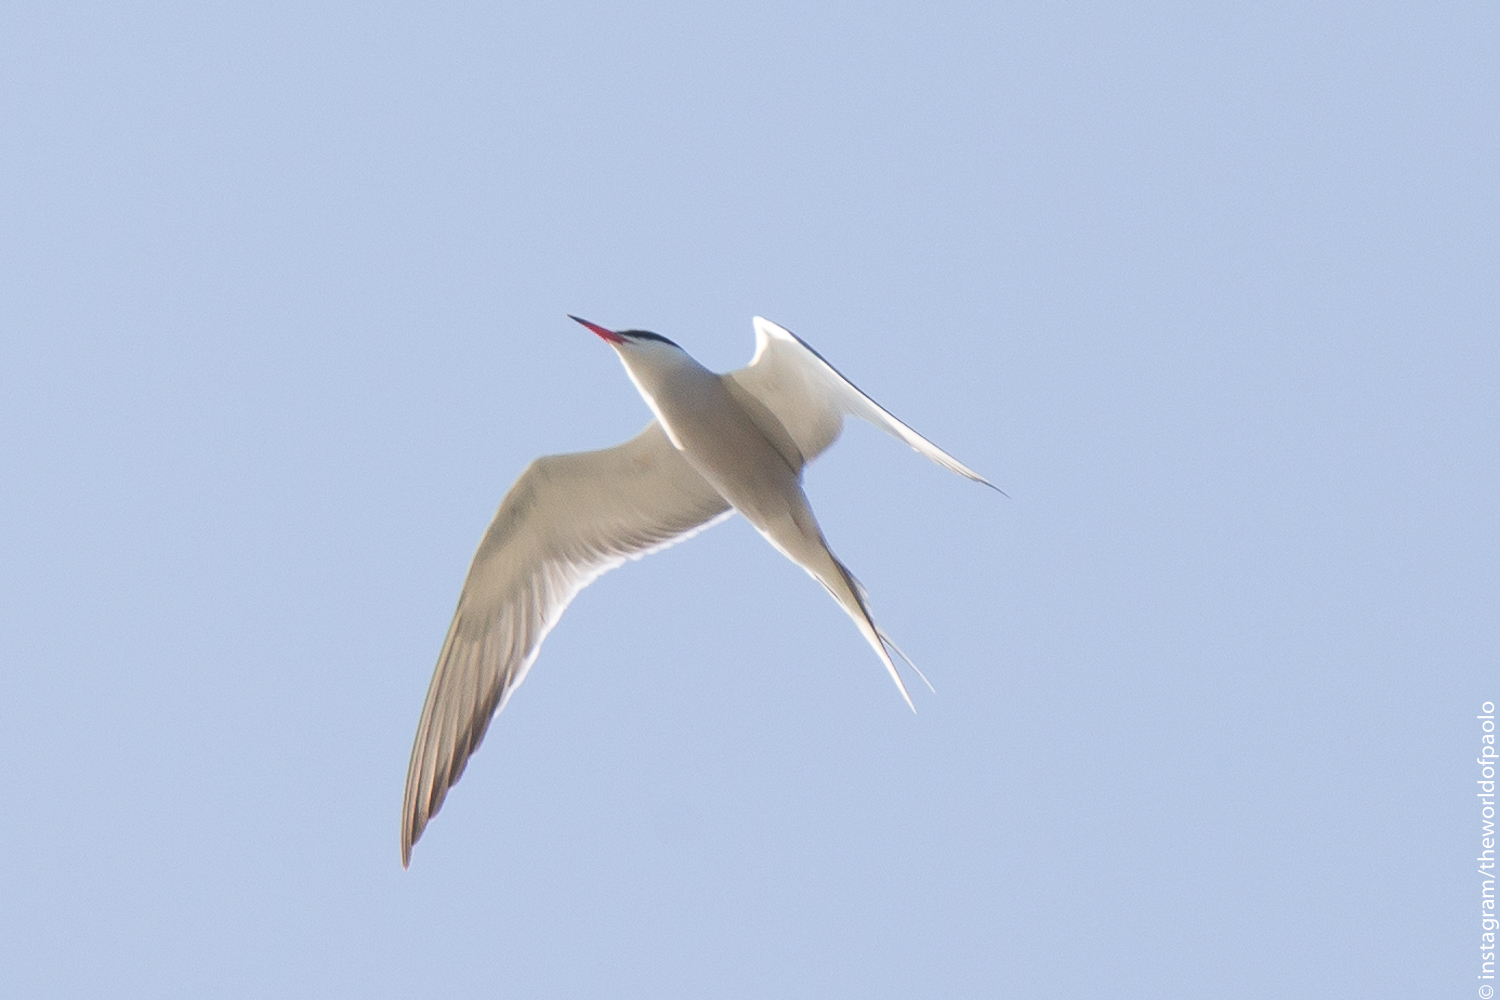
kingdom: Animalia
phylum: Chordata
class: Aves
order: Charadriiformes
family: Laridae
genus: Sterna
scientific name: Sterna hirundo
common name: Common tern
